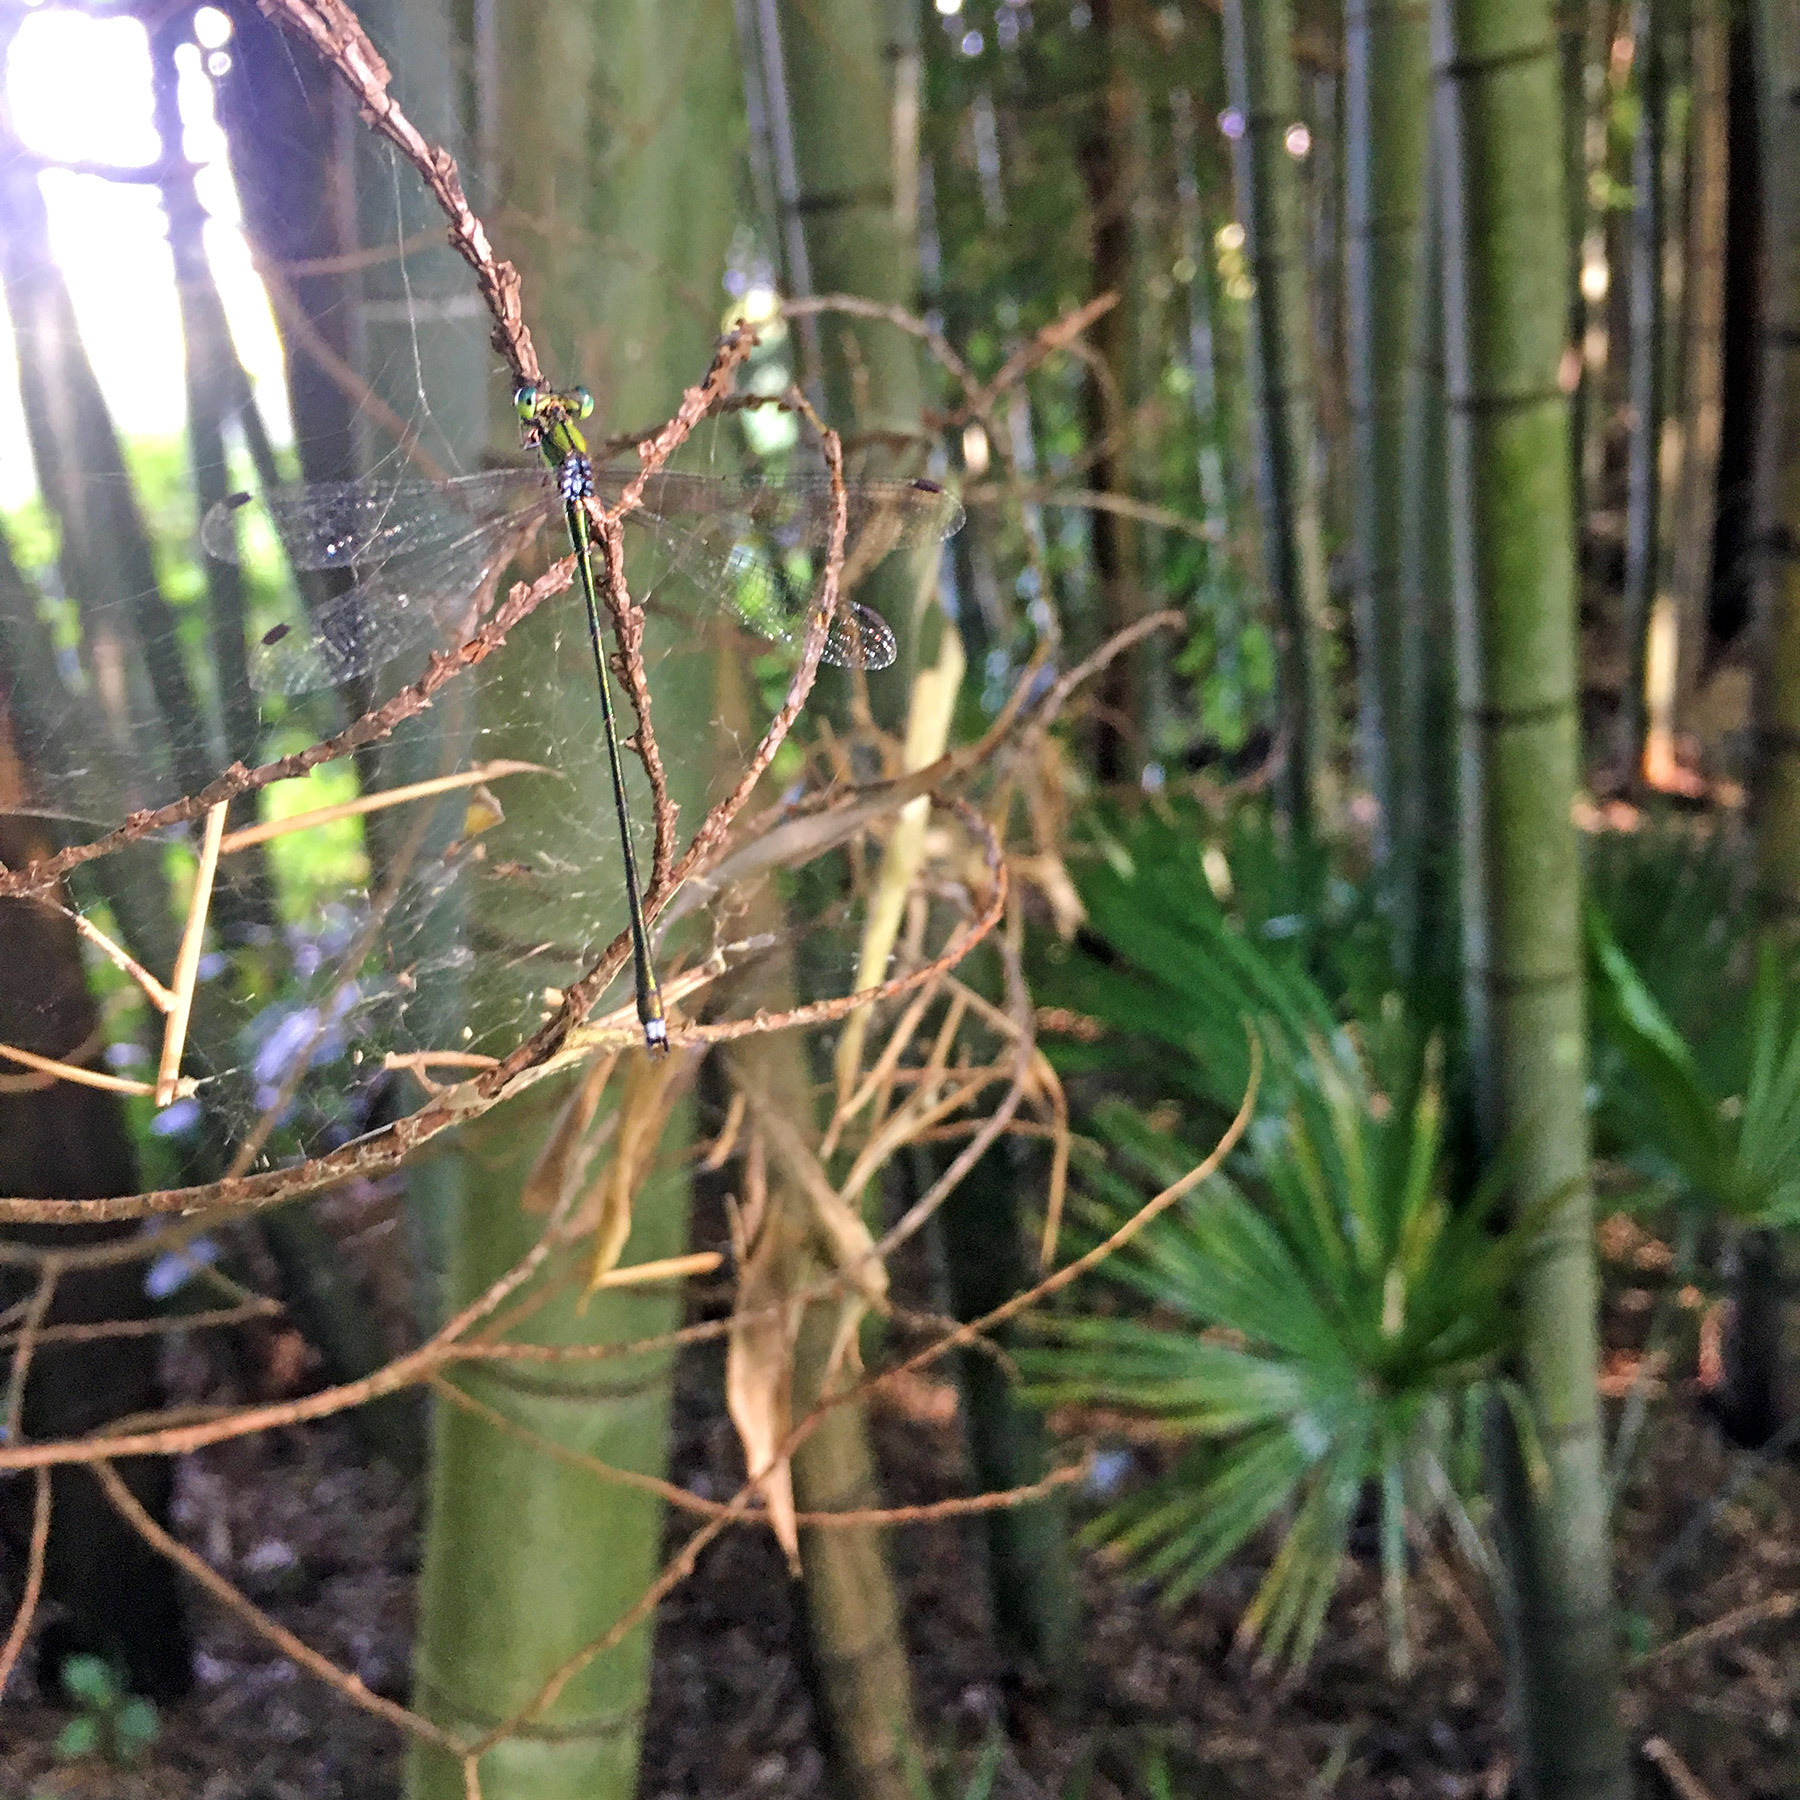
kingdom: Animalia
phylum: Arthropoda
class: Insecta
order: Odonata
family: Lestidae
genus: Lestes
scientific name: Lestes temporalis
